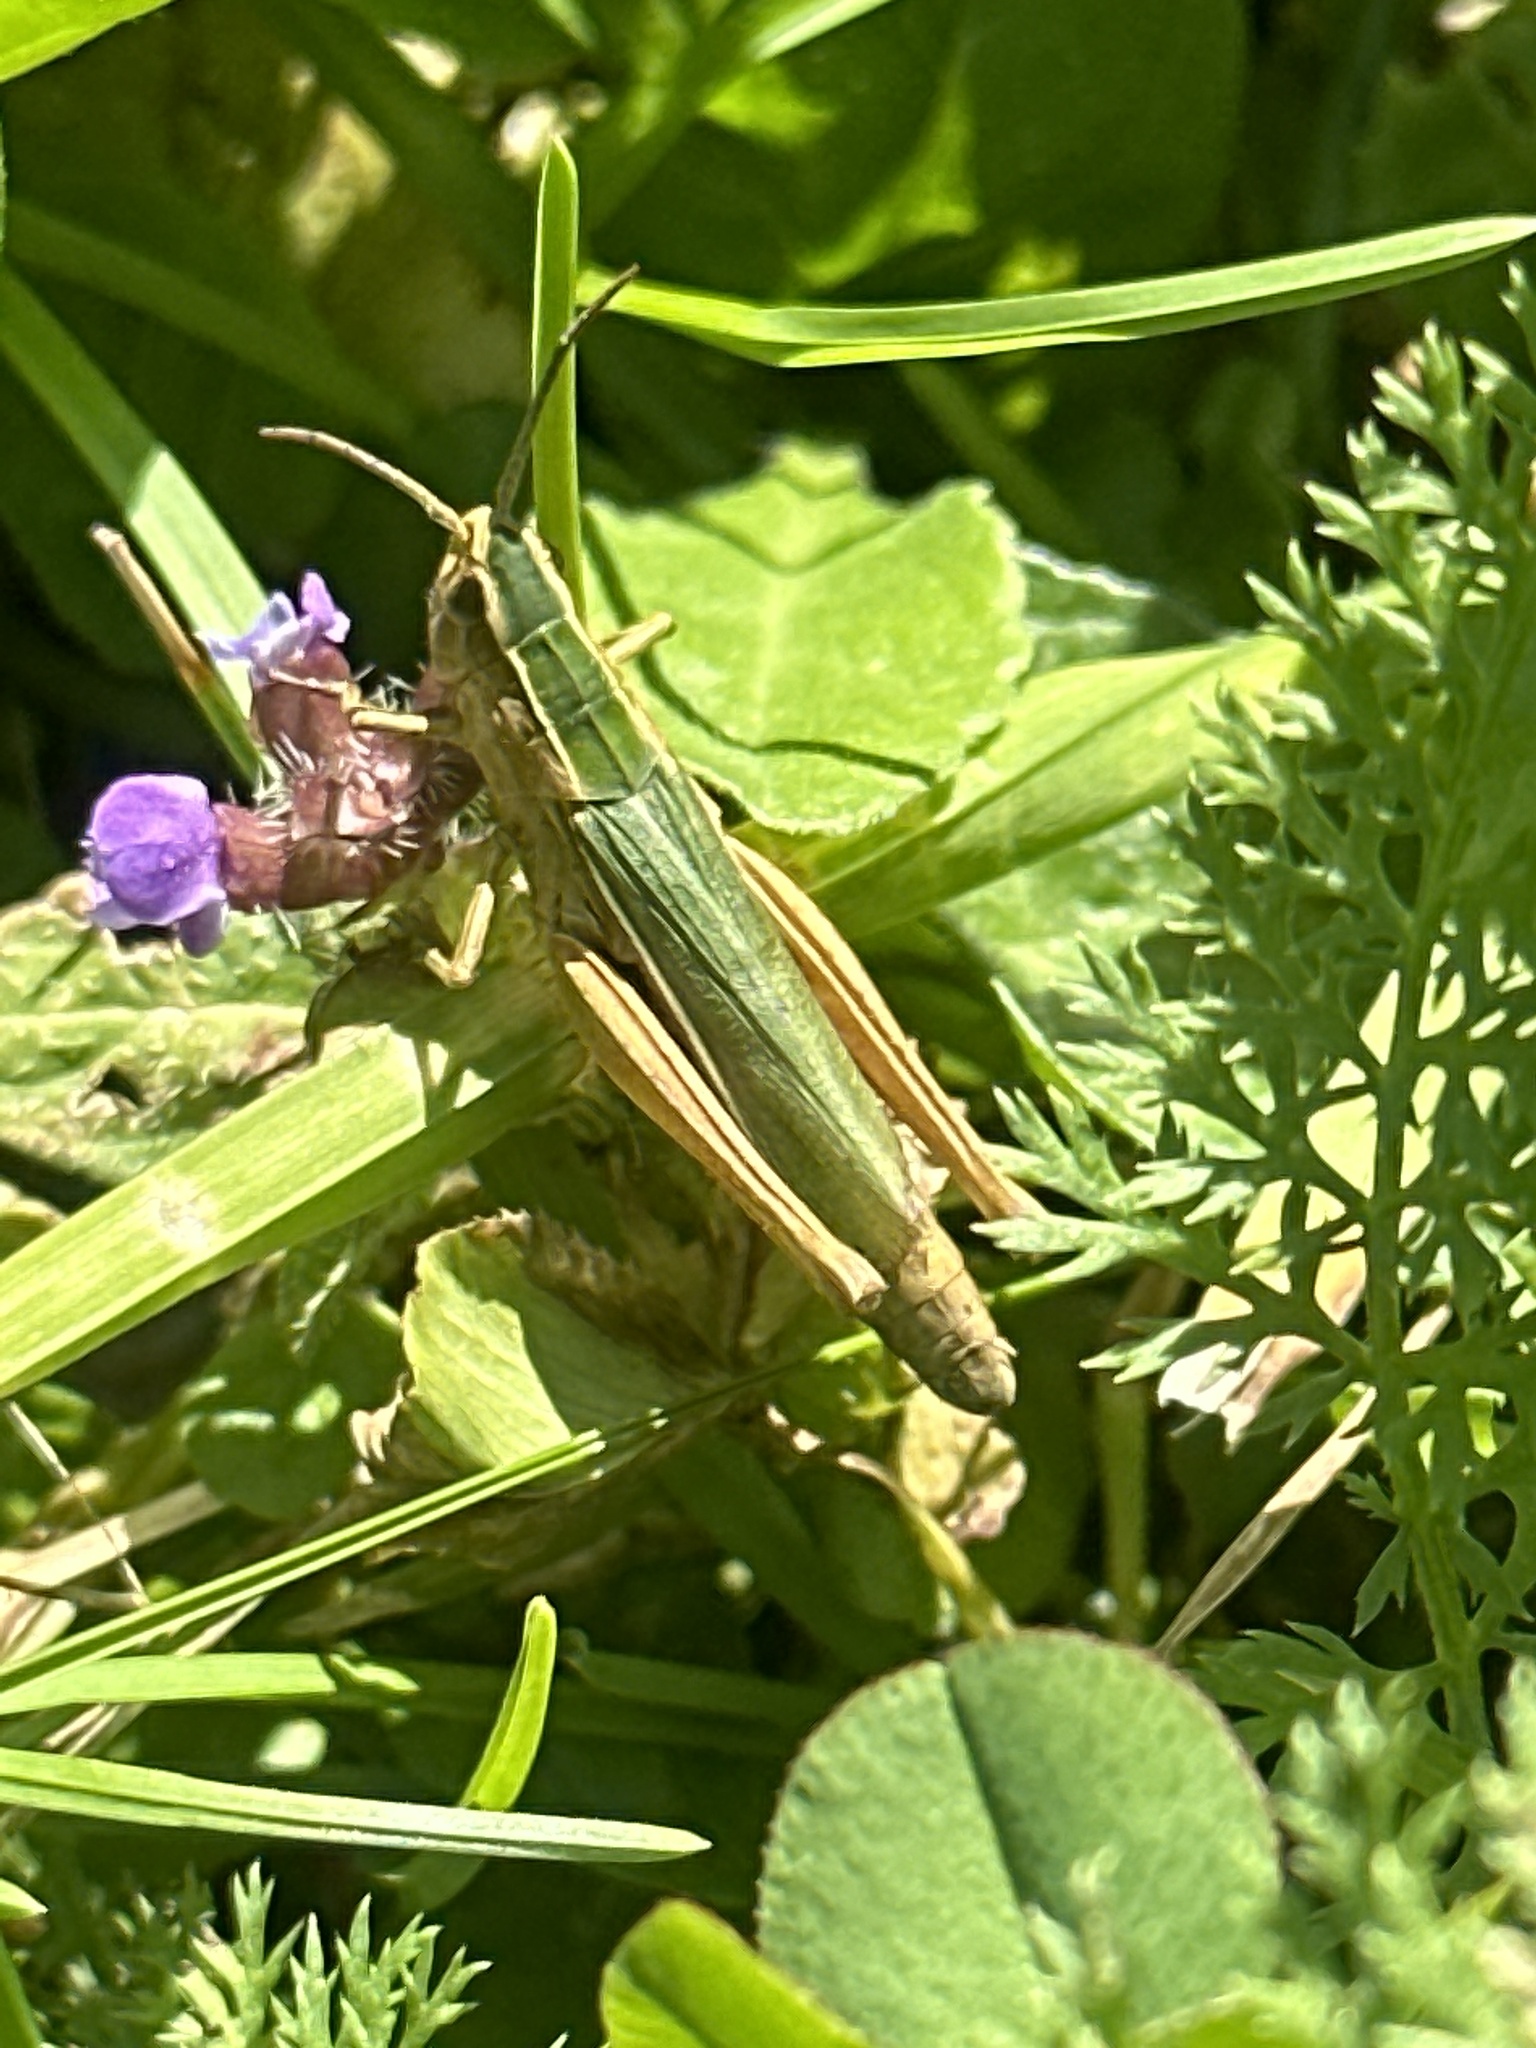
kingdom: Animalia
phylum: Arthropoda
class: Insecta
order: Orthoptera
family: Acrididae
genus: Chorthippus
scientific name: Chorthippus albomarginatus
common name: Lesser marsh grasshopper
